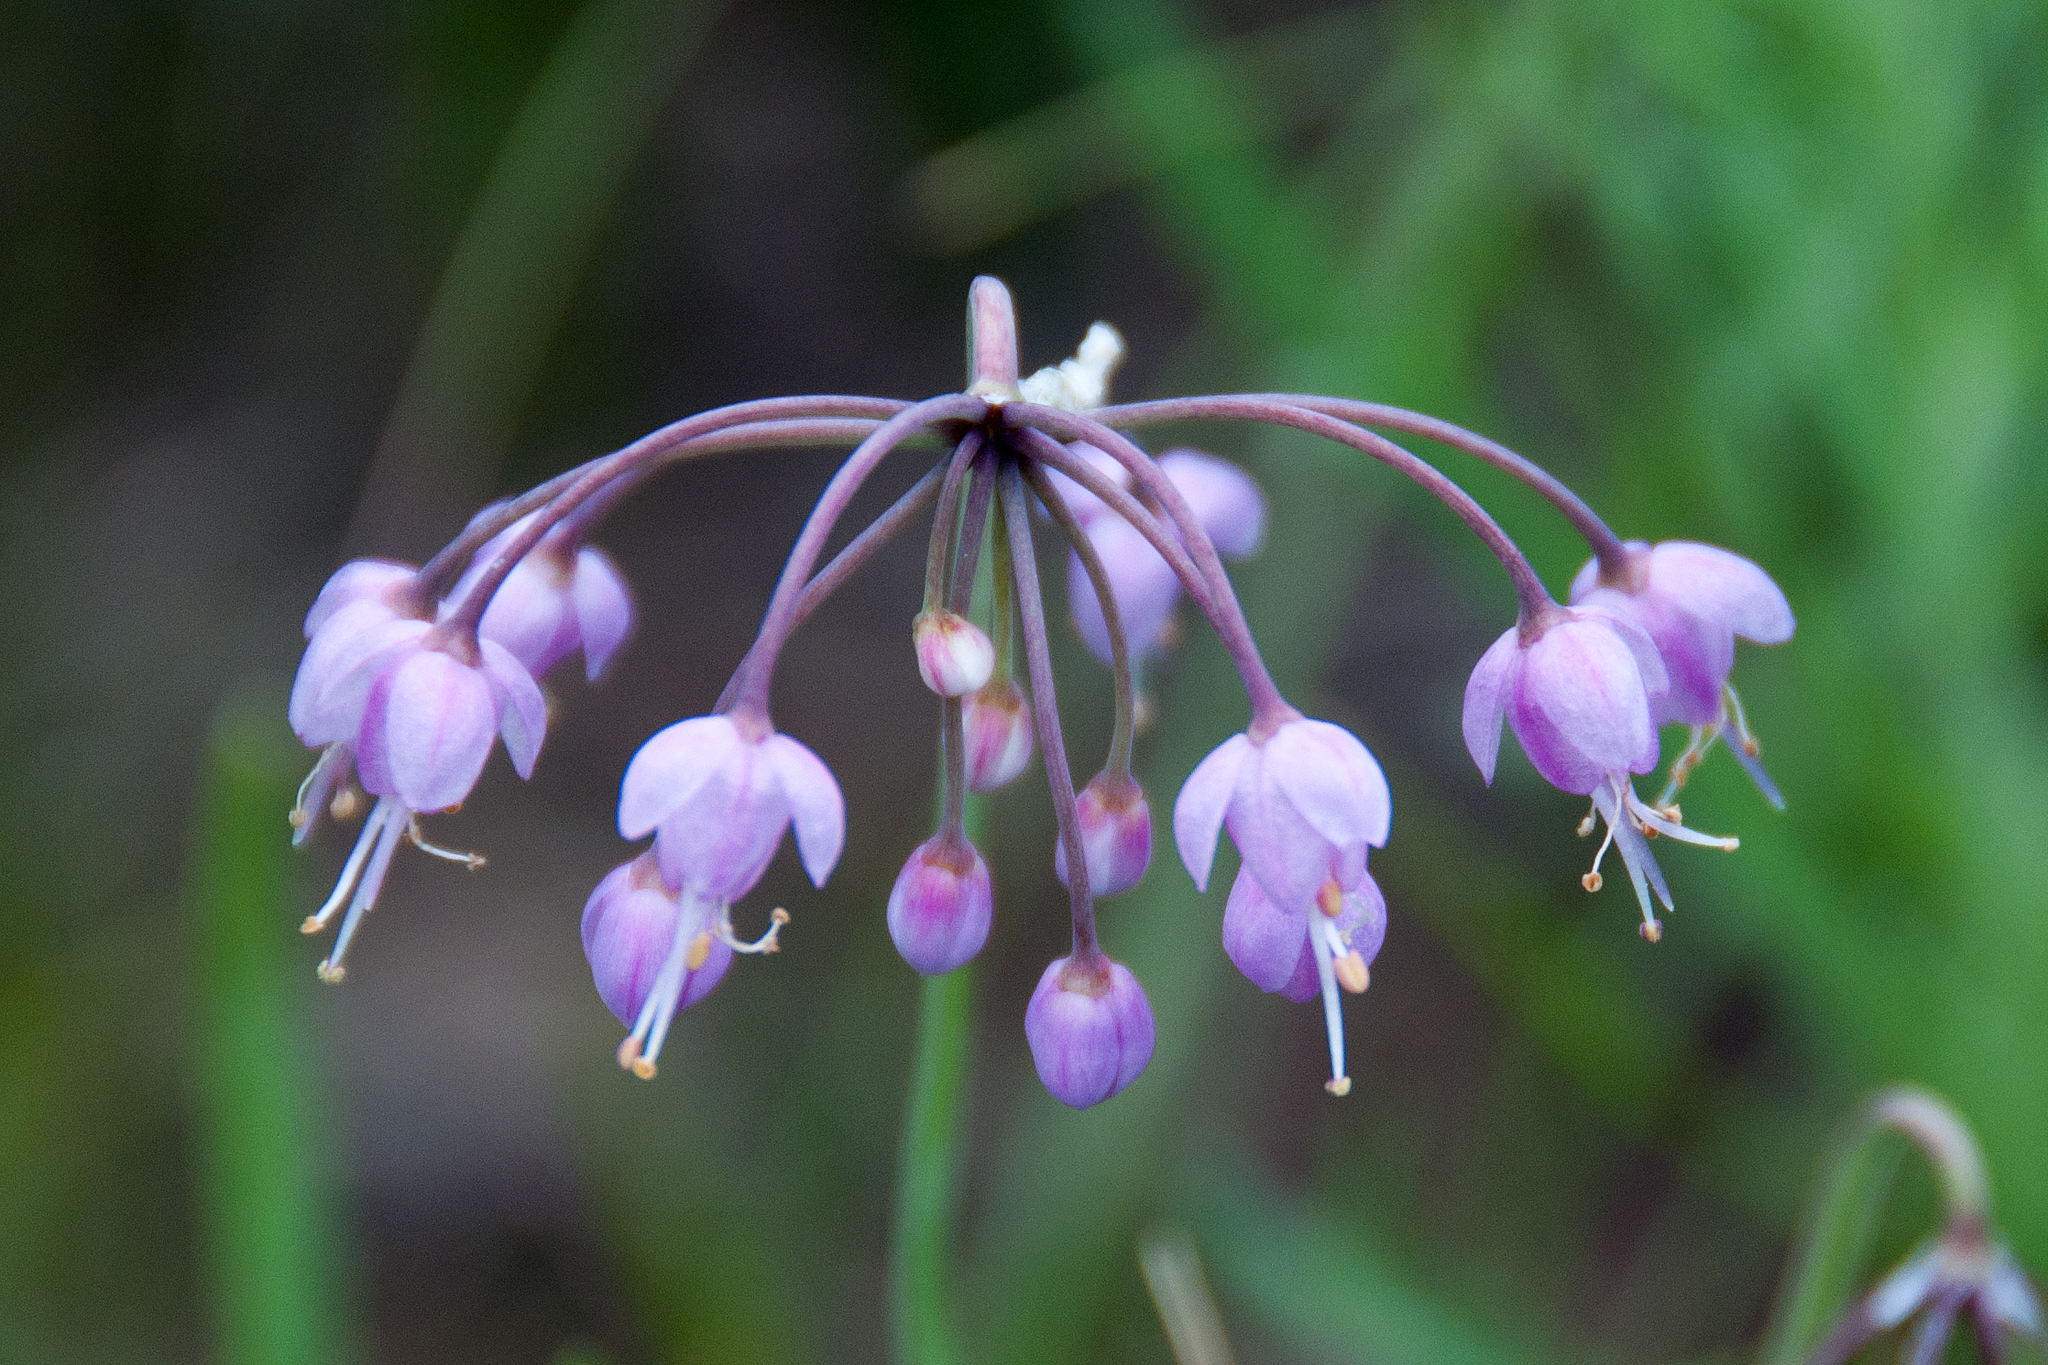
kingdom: Plantae
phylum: Tracheophyta
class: Liliopsida
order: Asparagales
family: Amaryllidaceae
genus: Allium
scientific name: Allium cernuum
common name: Nodding onion
